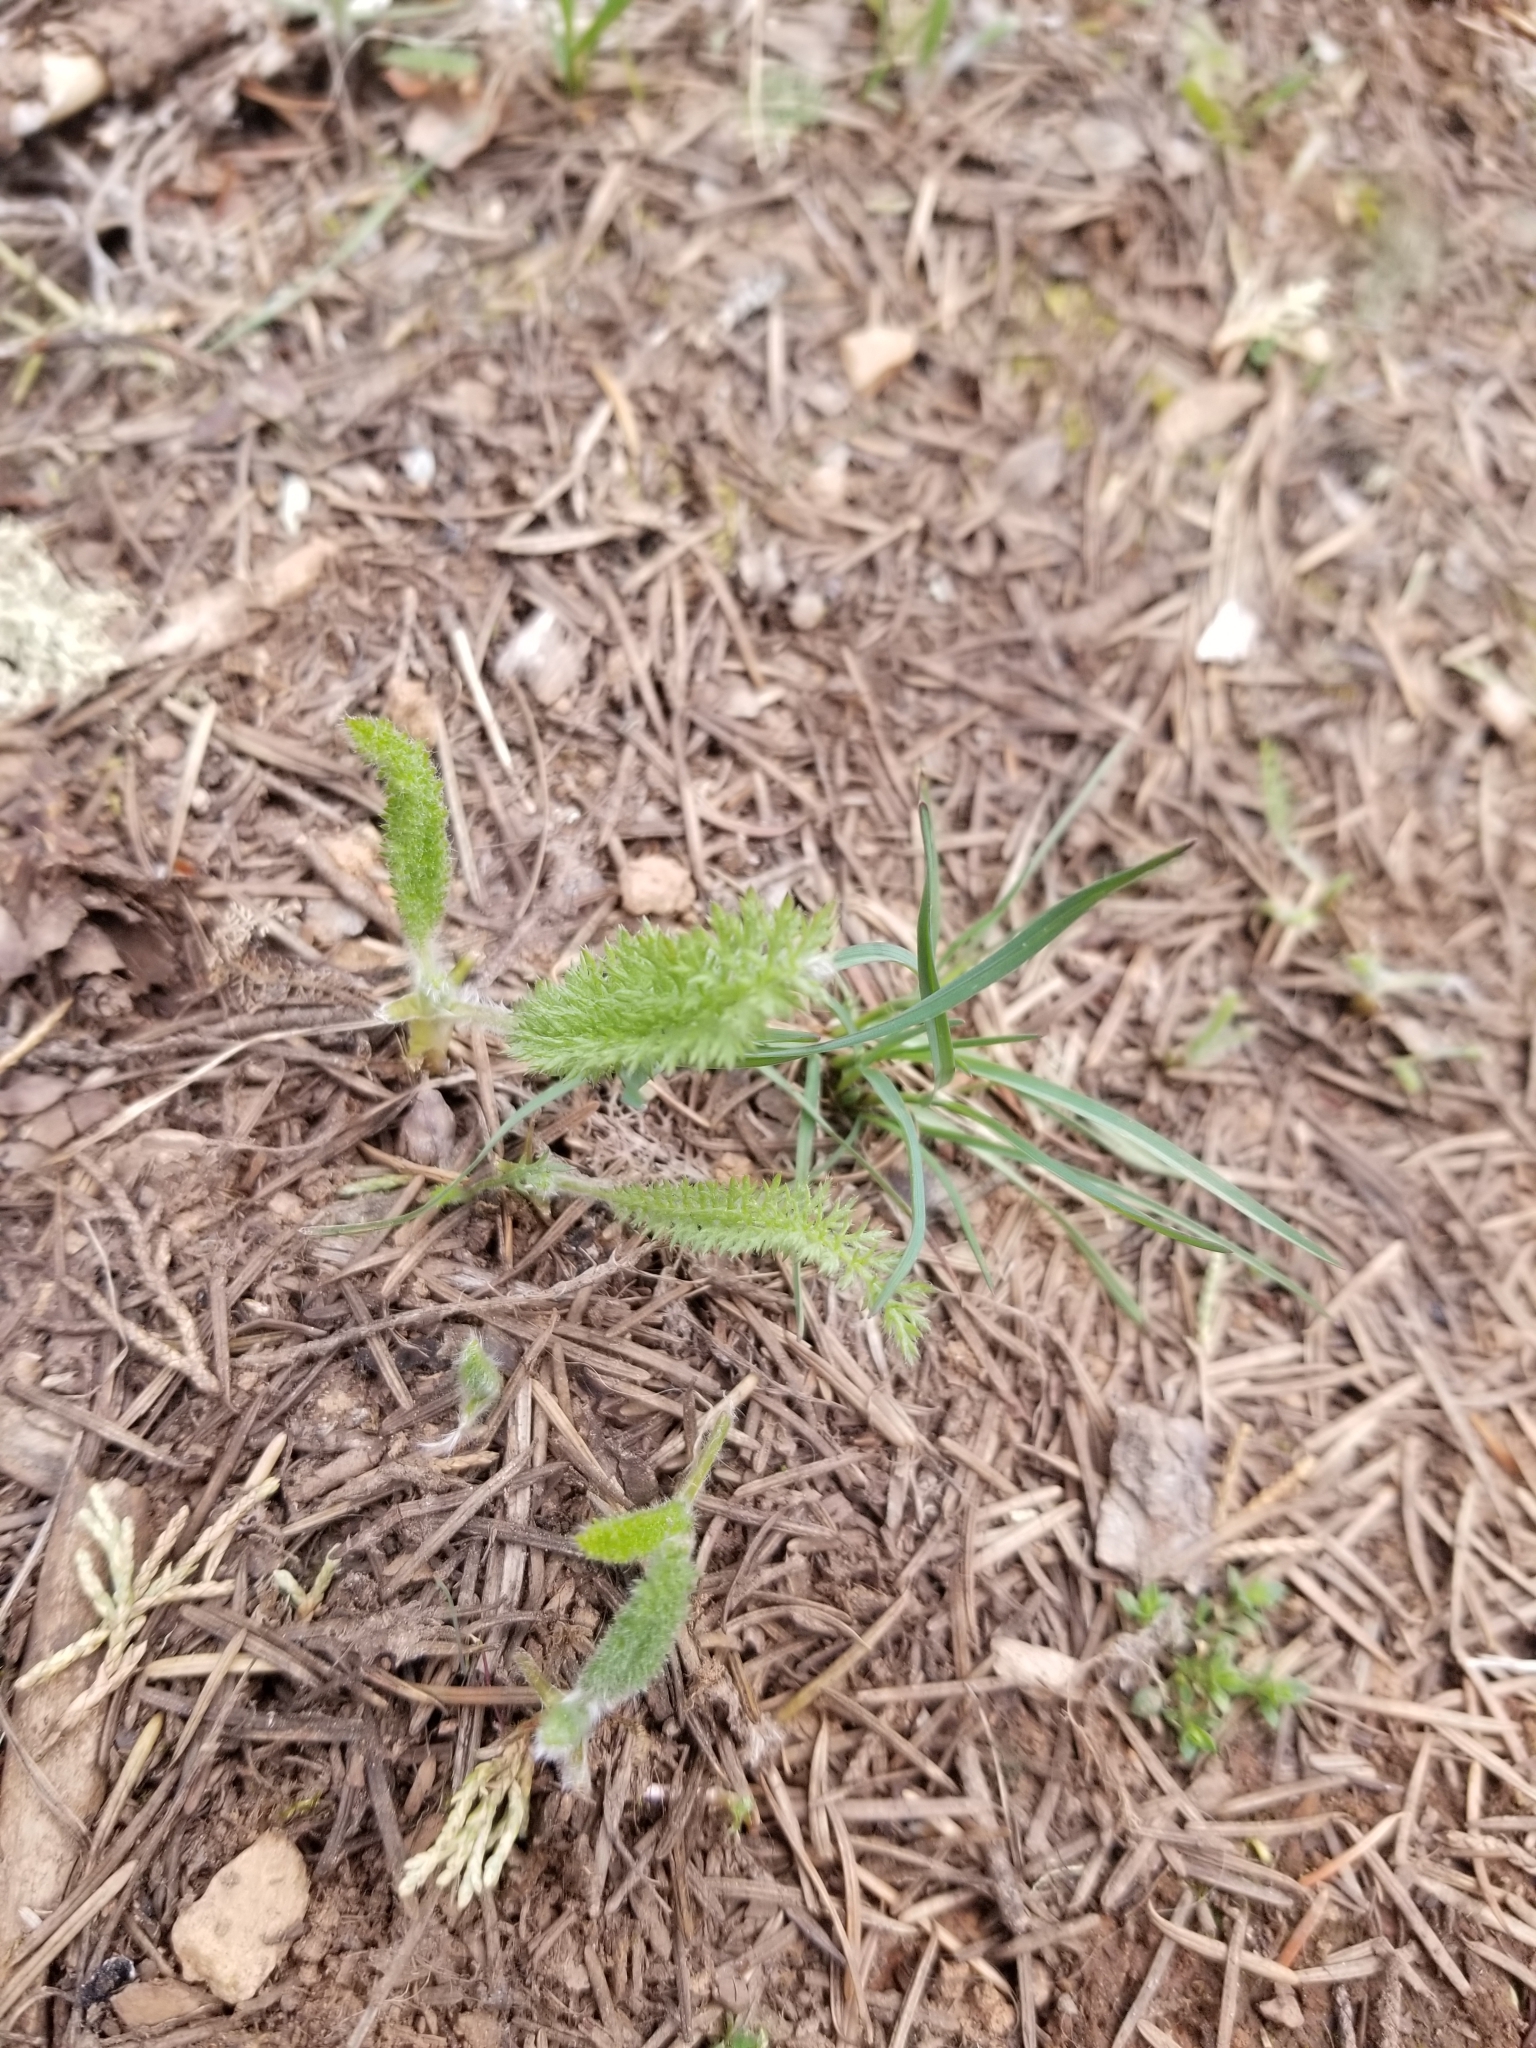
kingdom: Plantae
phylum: Tracheophyta
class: Magnoliopsida
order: Asterales
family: Asteraceae
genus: Achillea
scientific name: Achillea millefolium
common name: Yarrow
